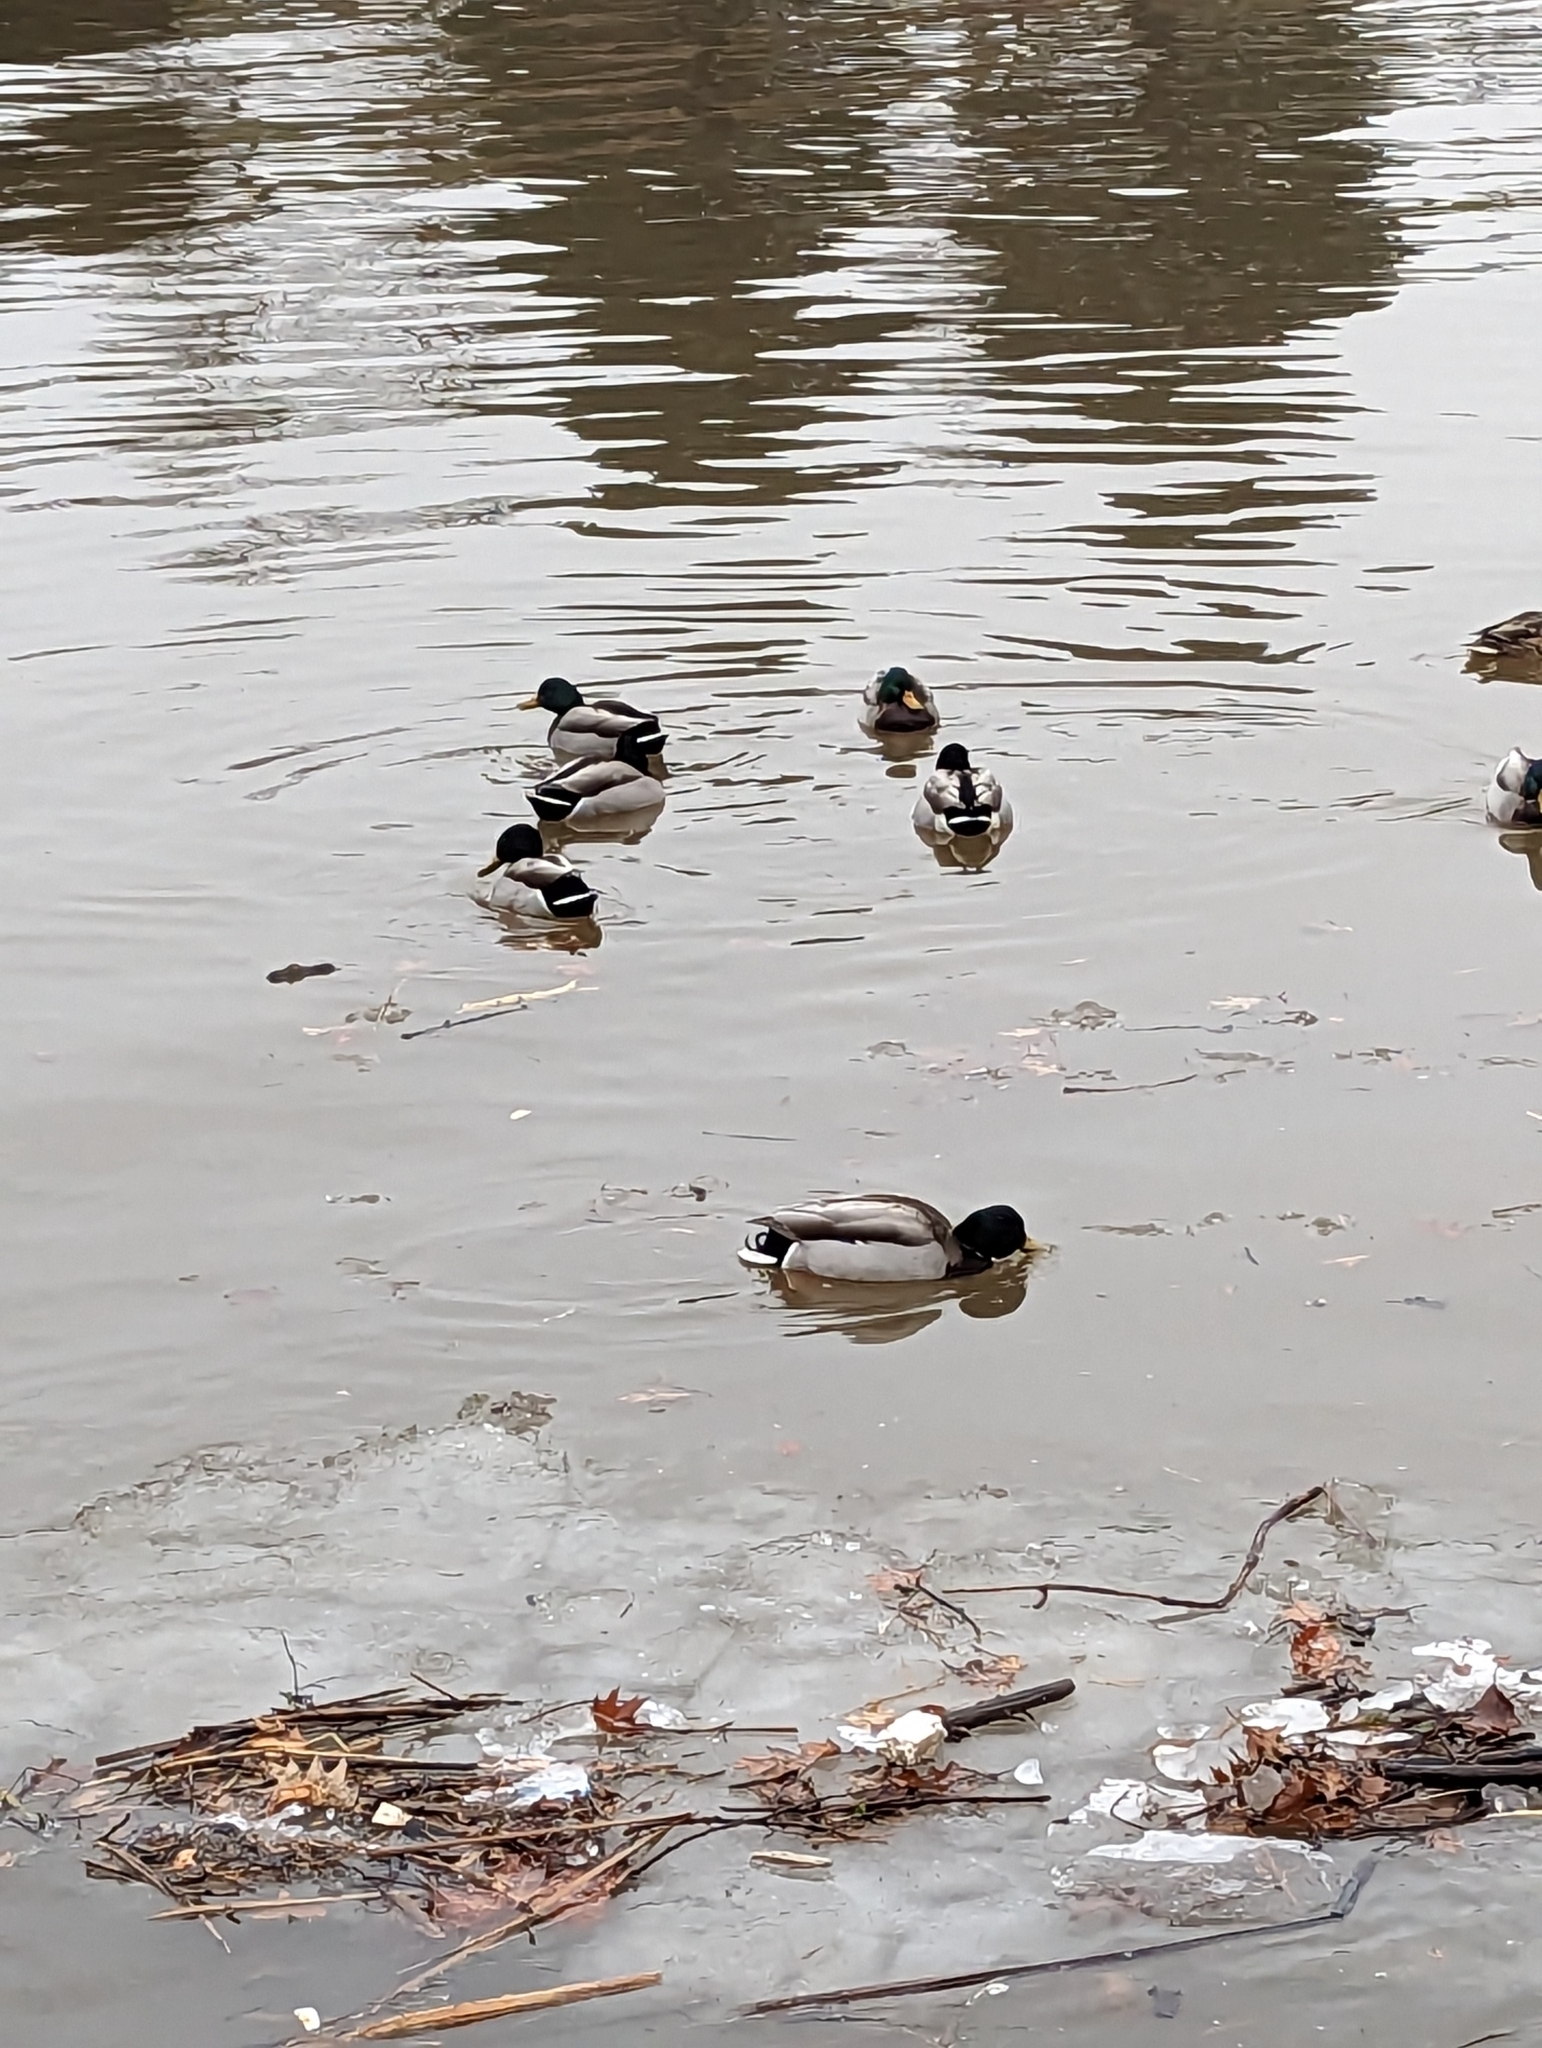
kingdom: Animalia
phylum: Chordata
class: Aves
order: Anseriformes
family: Anatidae
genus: Anas
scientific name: Anas platyrhynchos
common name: Mallard
